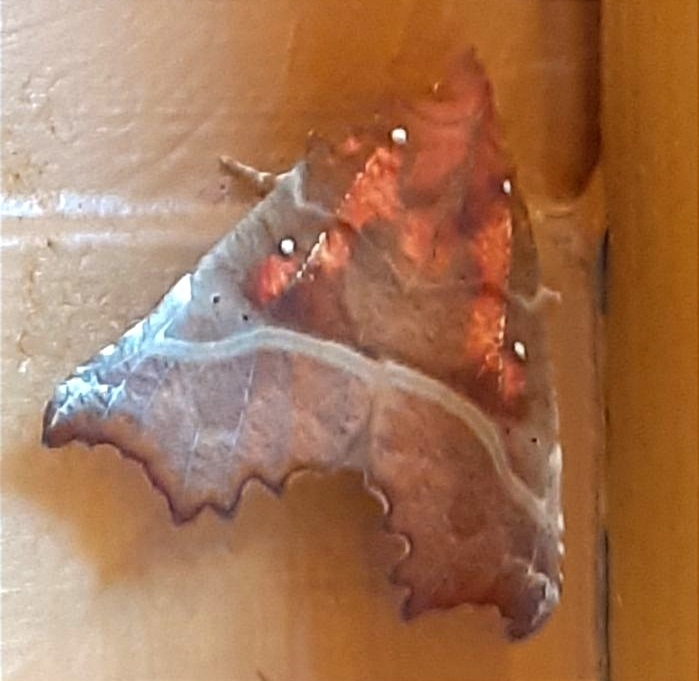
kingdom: Animalia
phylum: Arthropoda
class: Insecta
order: Lepidoptera
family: Erebidae
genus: Scoliopteryx
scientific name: Scoliopteryx libatrix
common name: Herald
